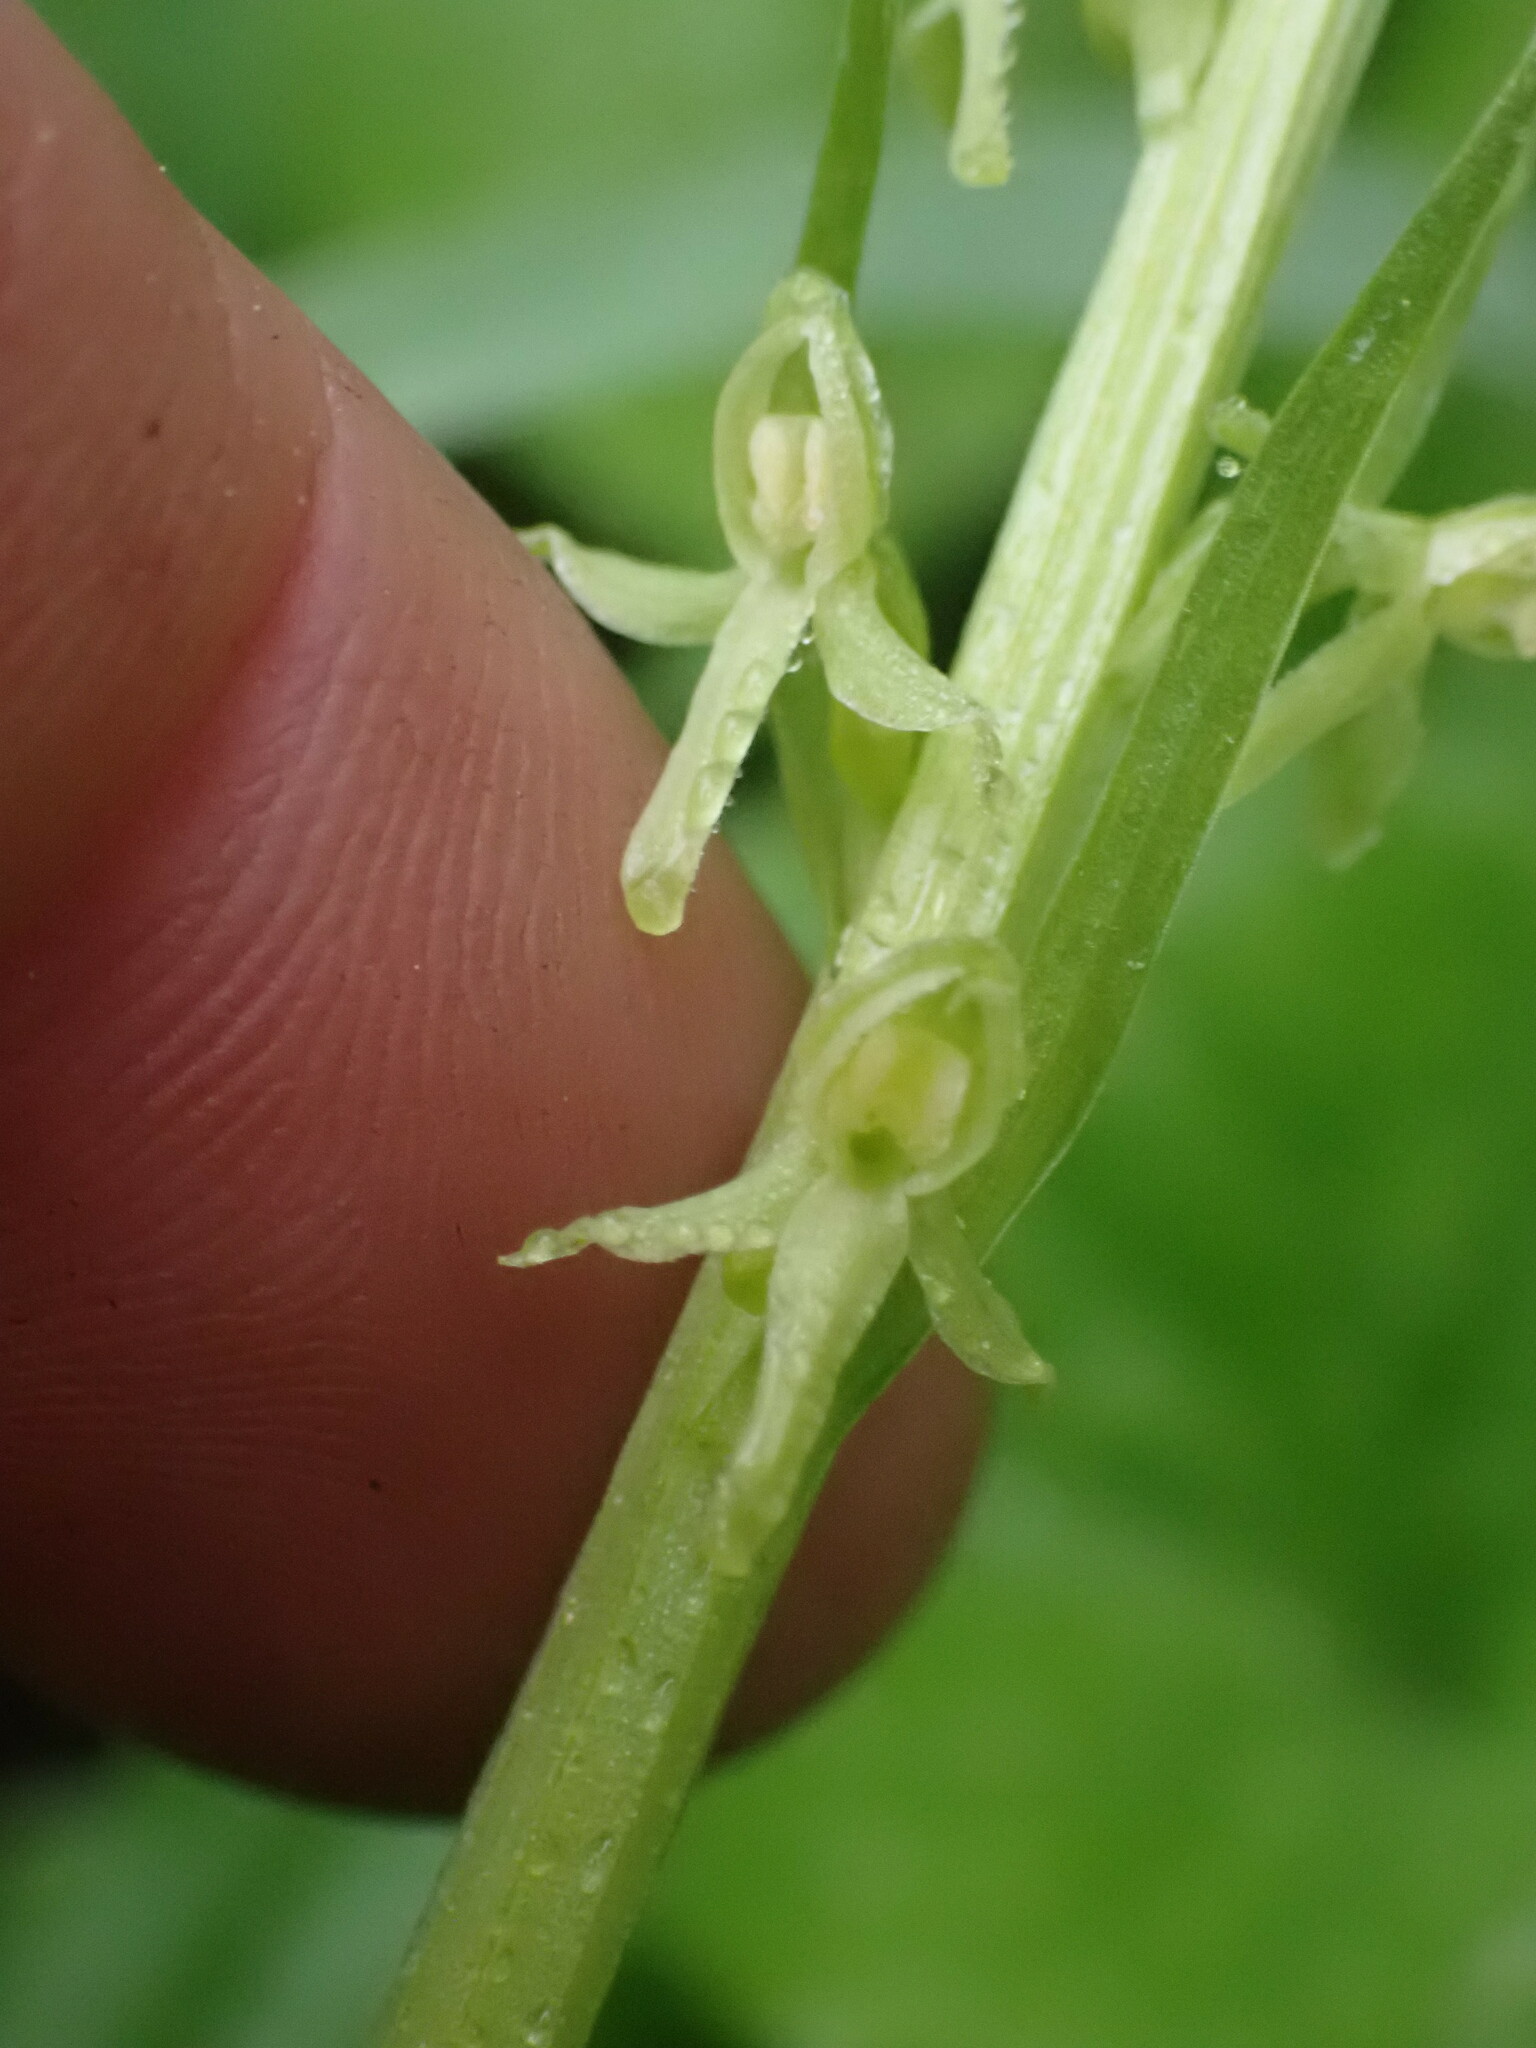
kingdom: Plantae
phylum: Tracheophyta
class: Liliopsida
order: Asparagales
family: Orchidaceae
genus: Platanthera
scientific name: Platanthera stricta
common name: Slender bog orchid
